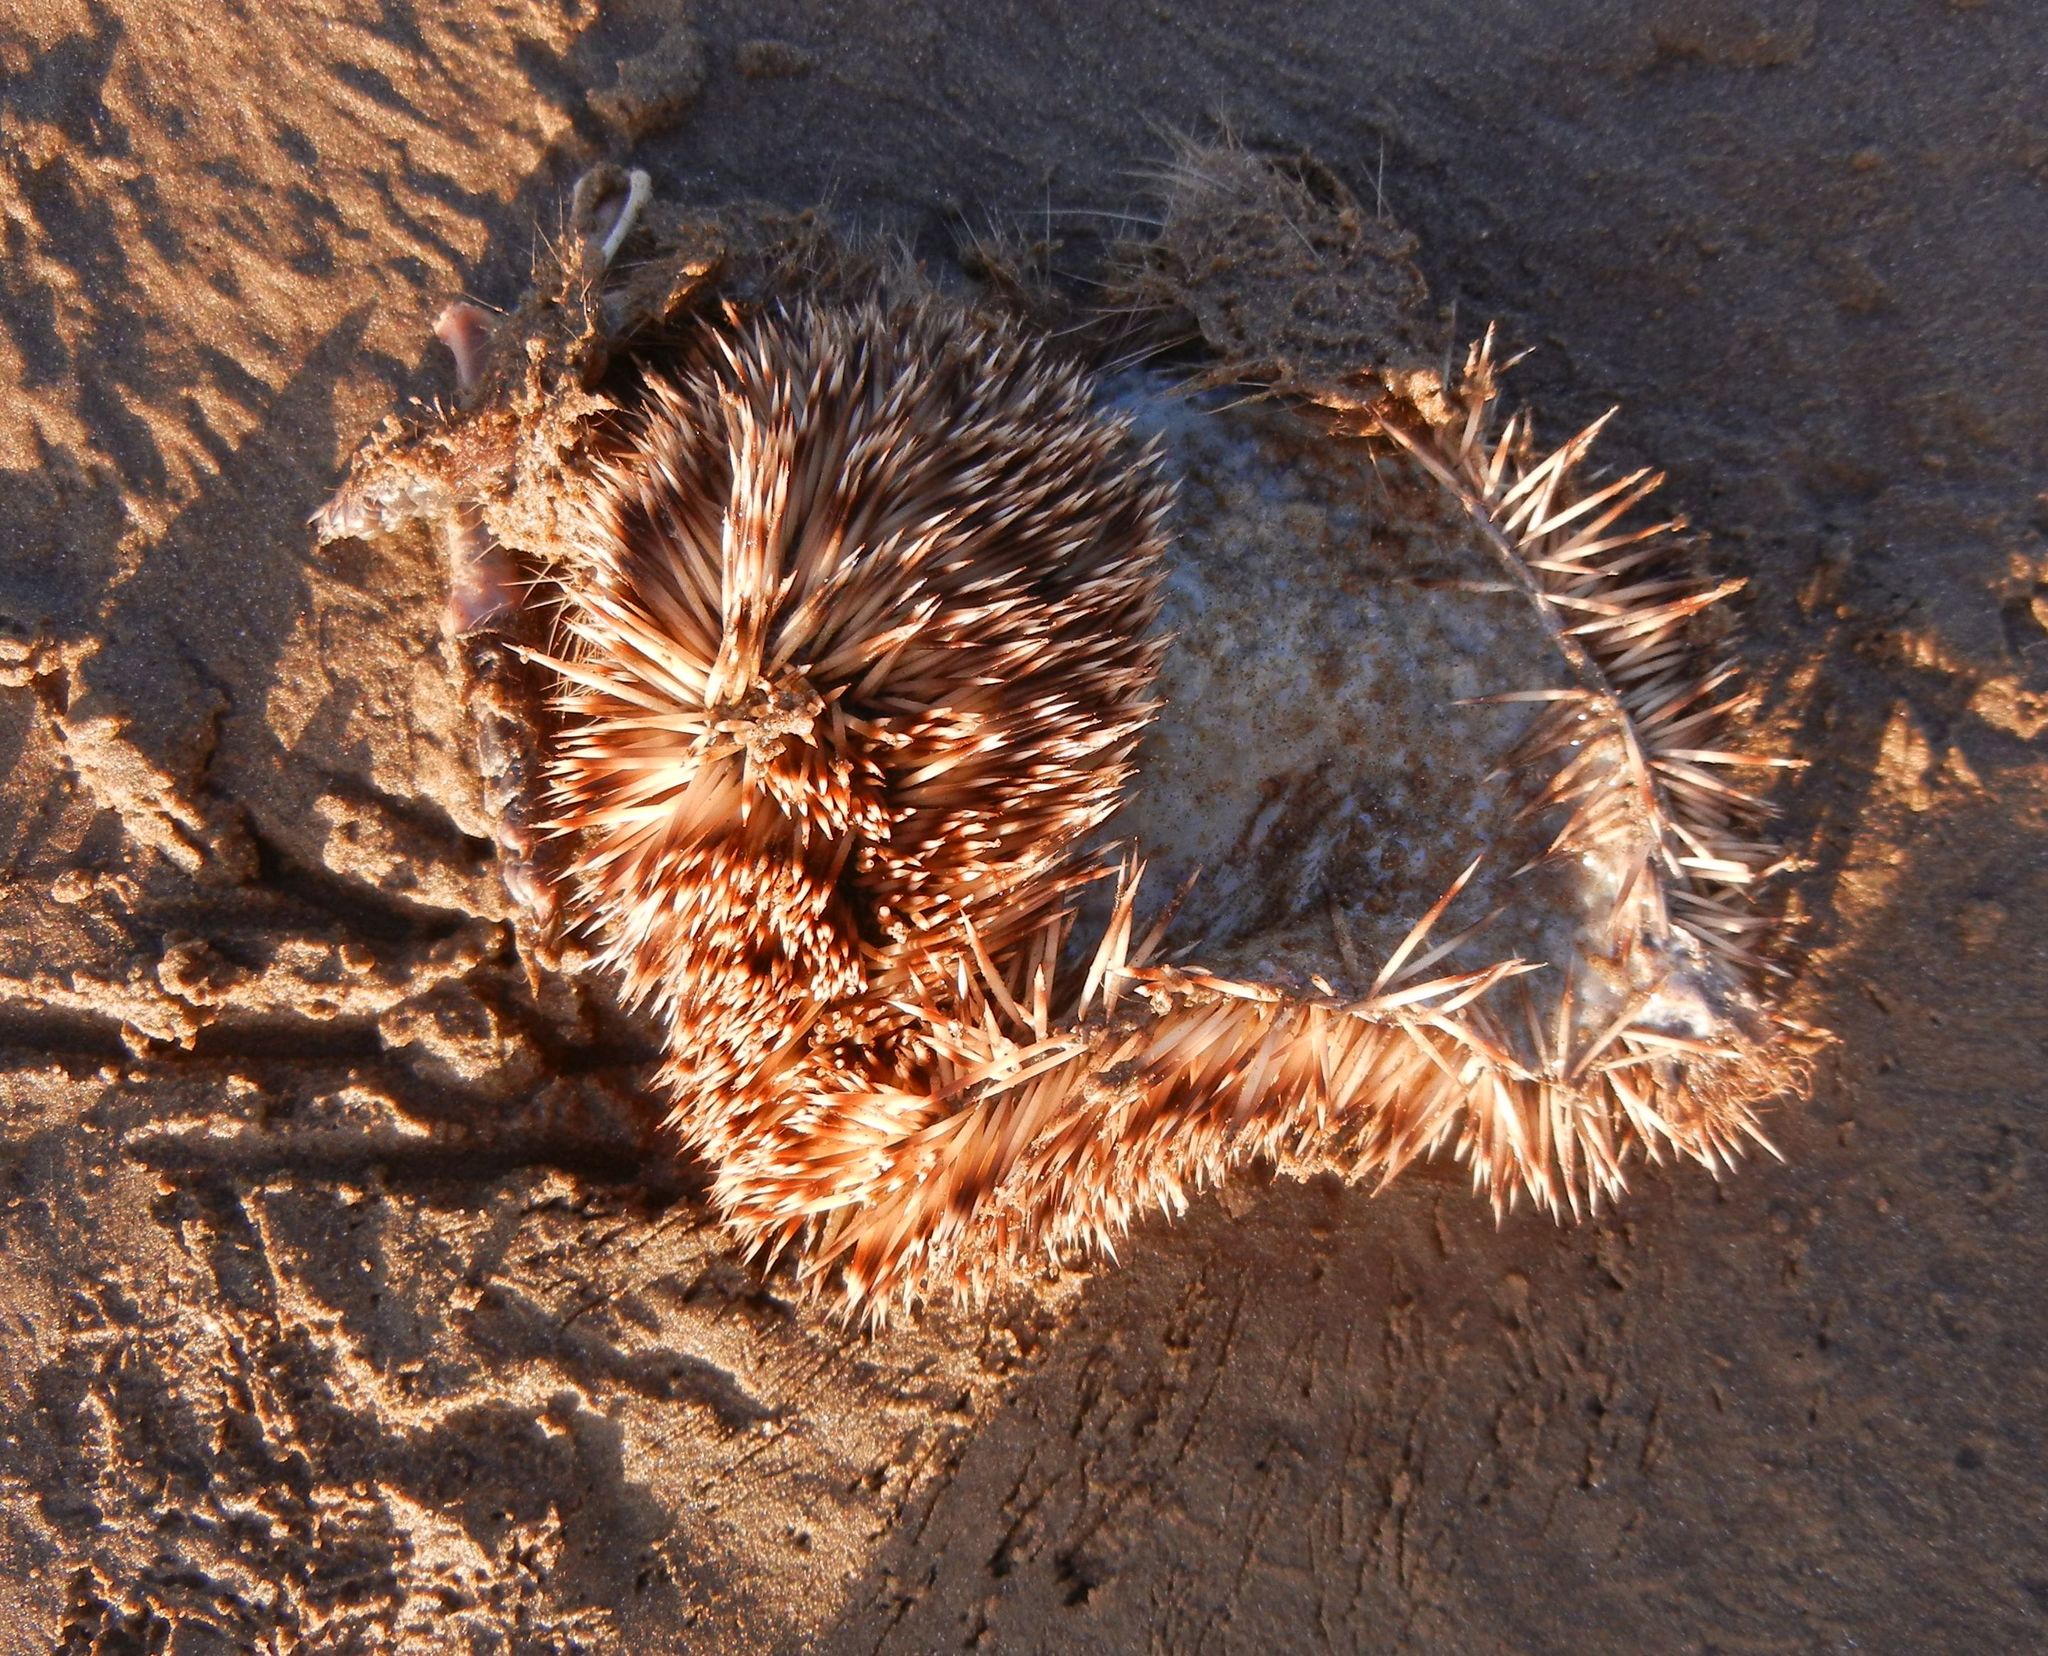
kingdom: Animalia
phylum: Chordata
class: Mammalia
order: Erinaceomorpha
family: Erinaceidae
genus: Erinaceus
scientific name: Erinaceus europaeus
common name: West european hedgehog
